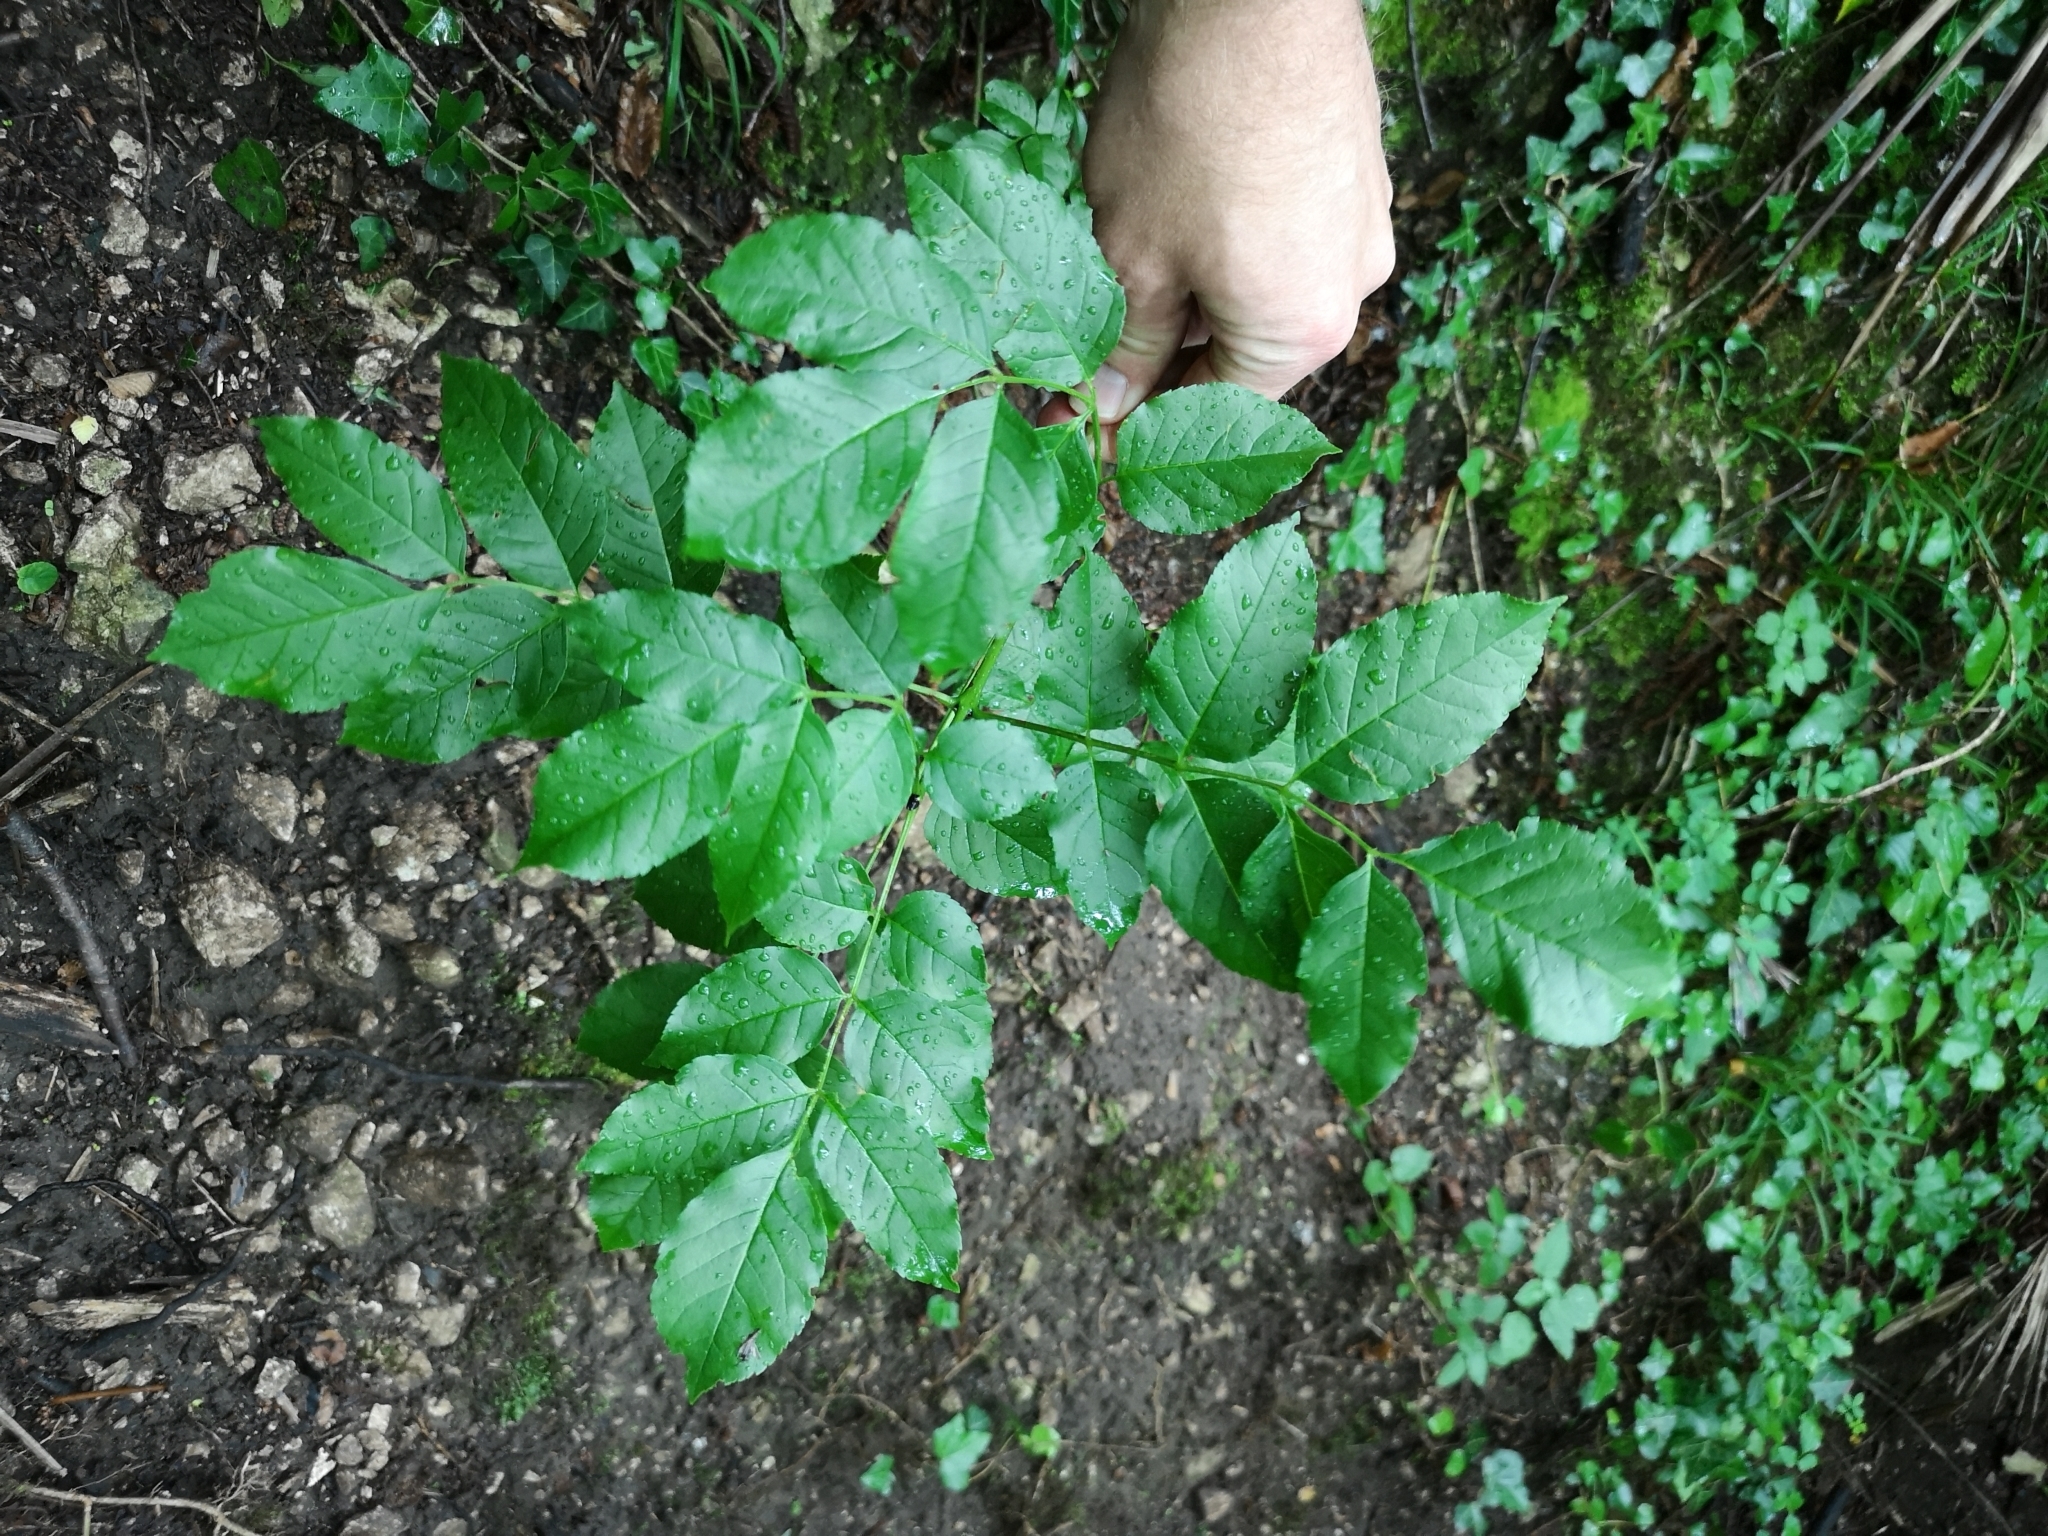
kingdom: Plantae
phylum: Tracheophyta
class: Magnoliopsida
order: Lamiales
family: Oleaceae
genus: Fraxinus
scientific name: Fraxinus ornus
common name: Manna ash
